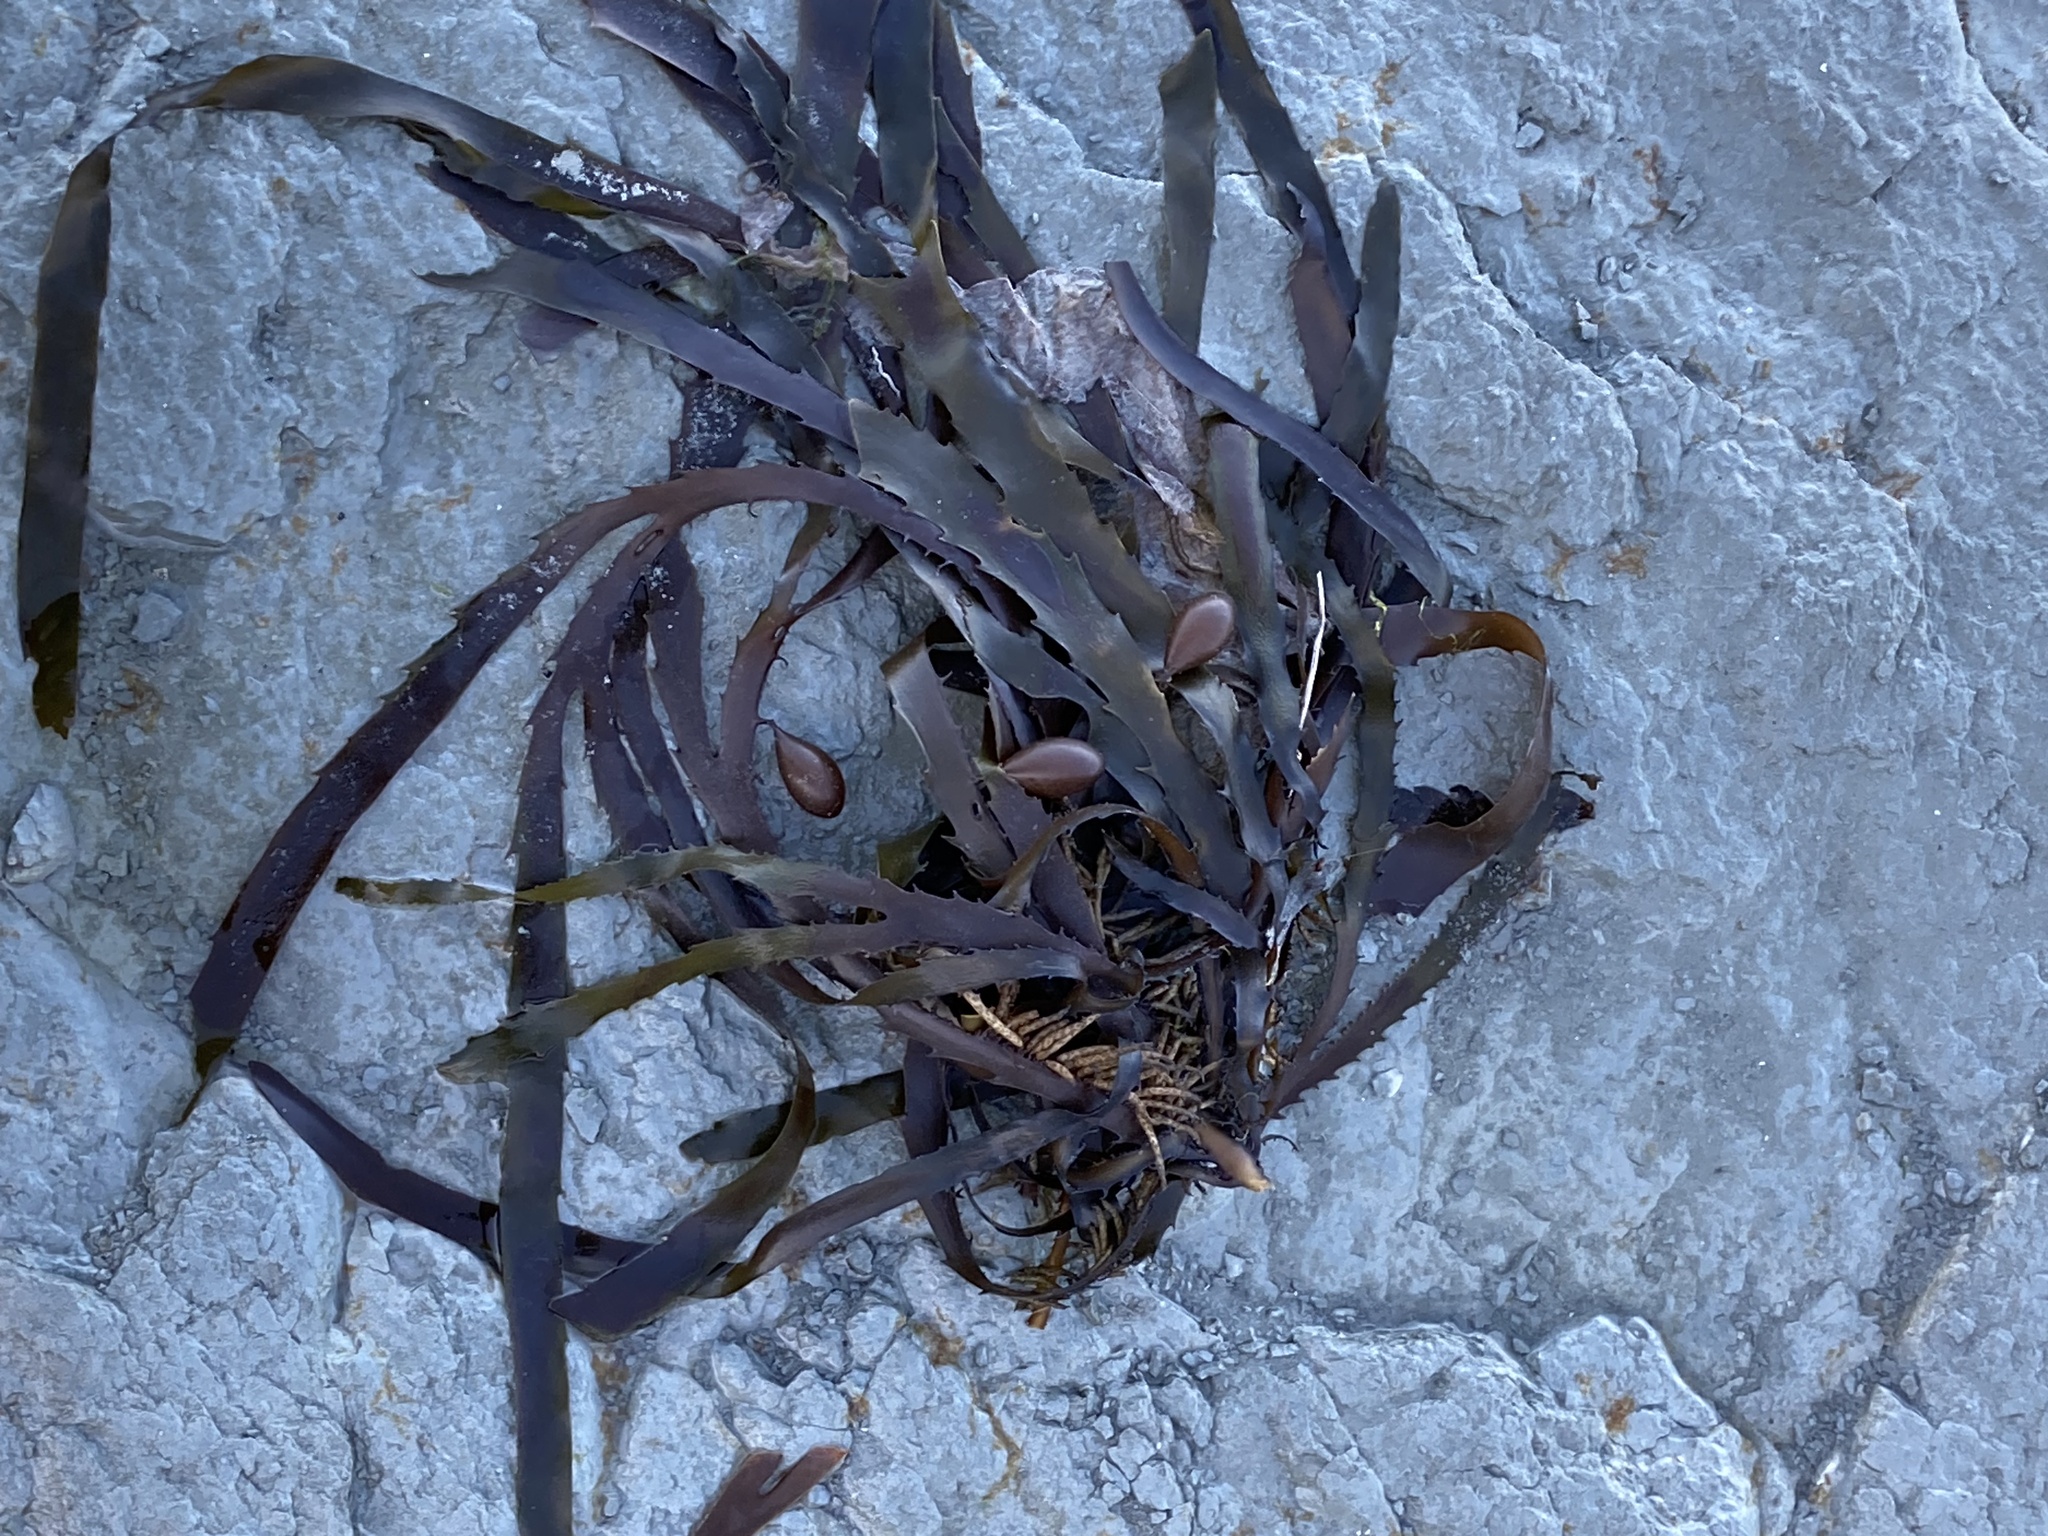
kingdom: Chromista
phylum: Ochrophyta
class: Phaeophyceae
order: Fucales
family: Seirococcaceae
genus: Marginariella
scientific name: Marginariella boryana
